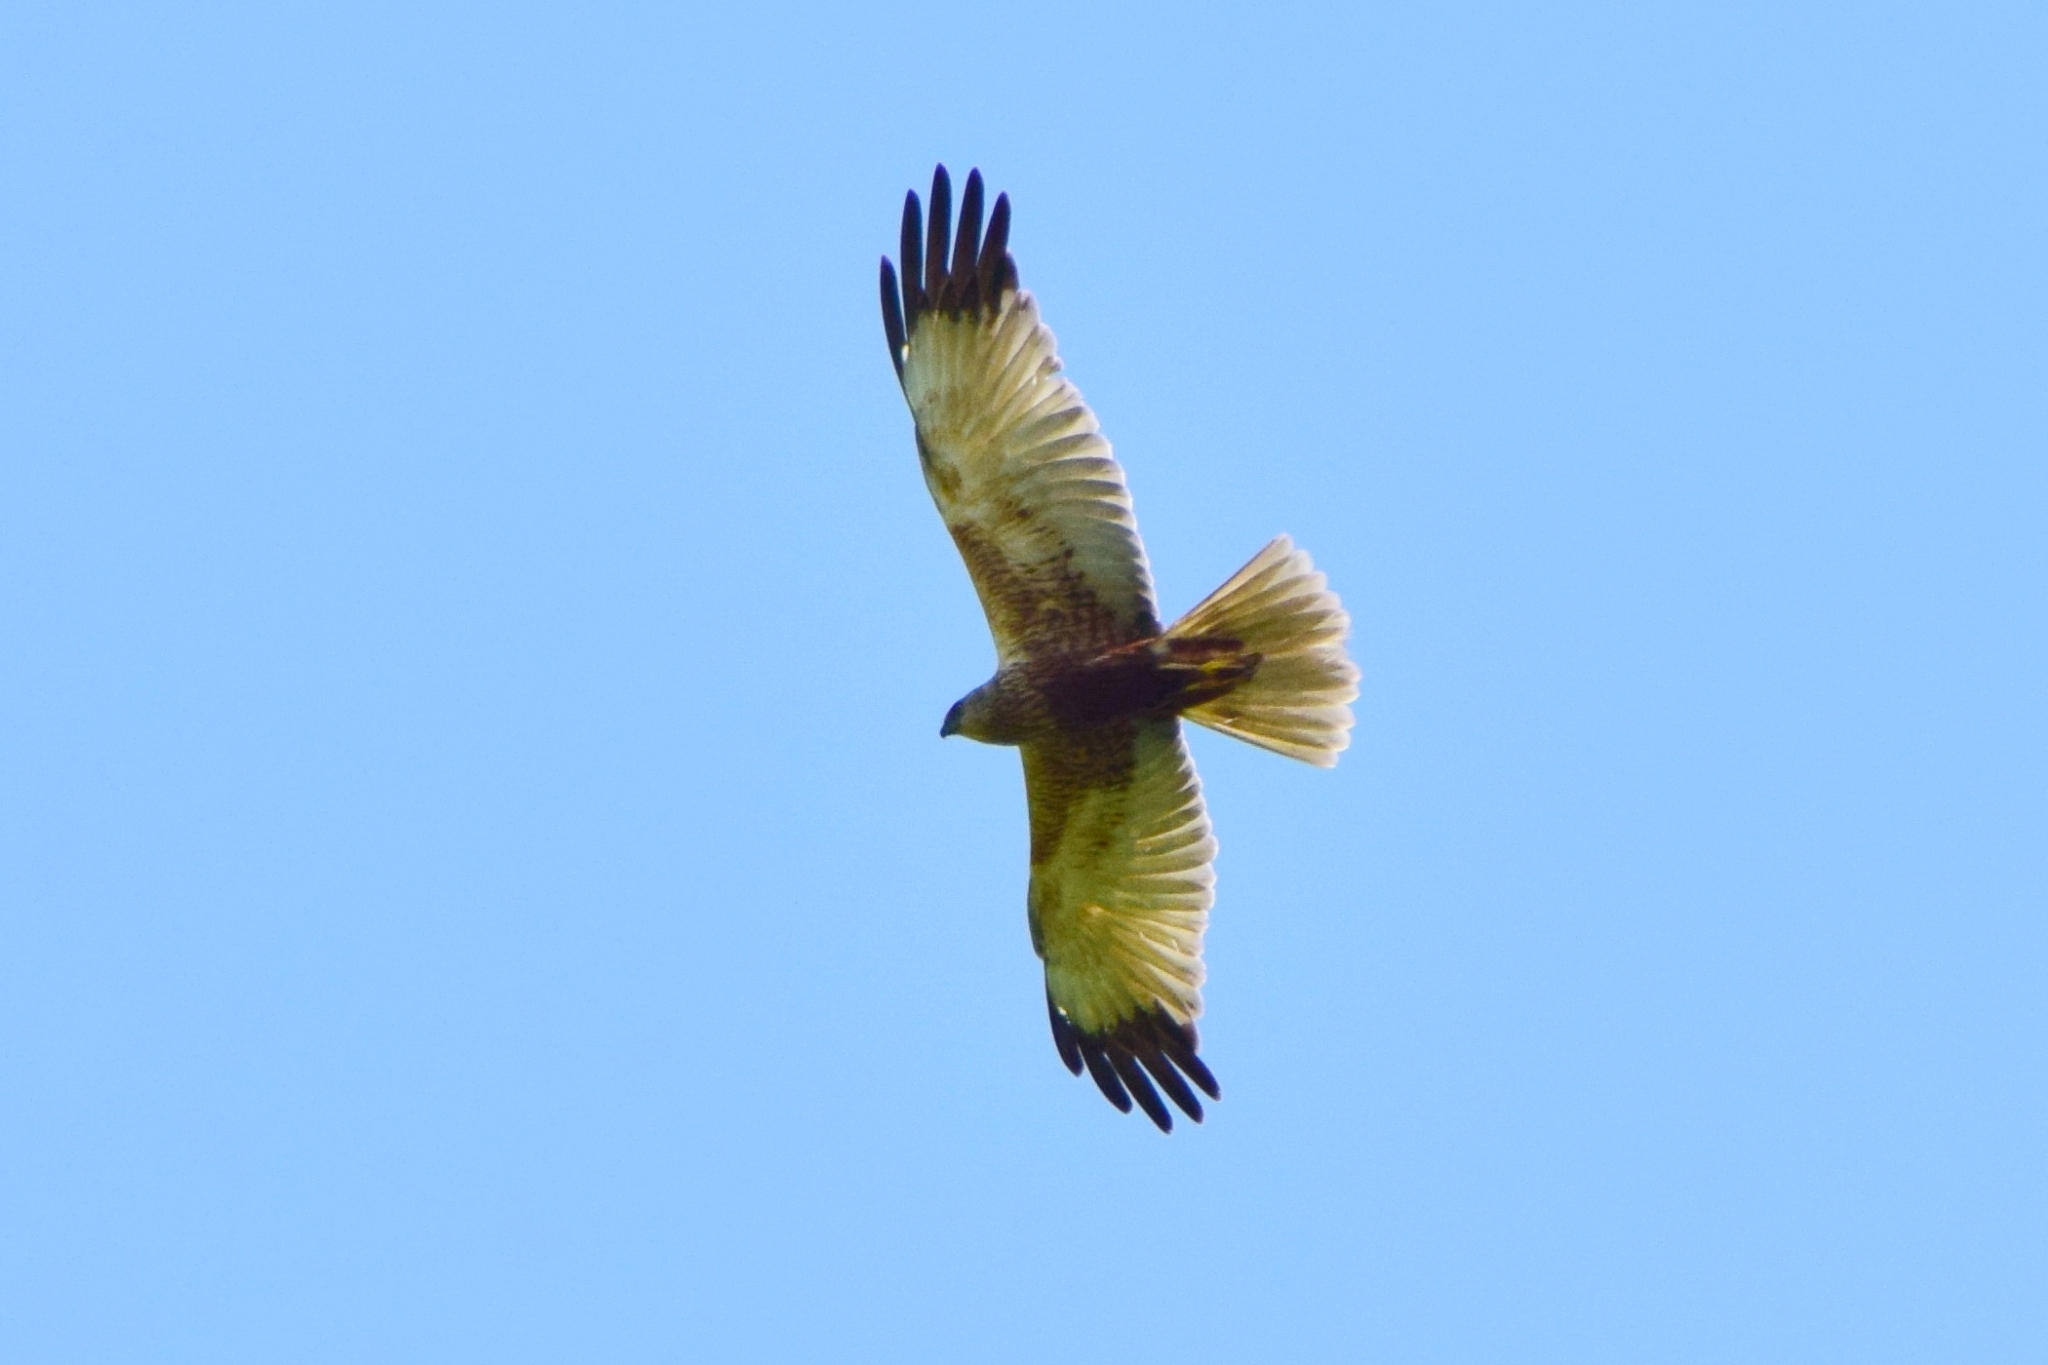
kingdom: Animalia
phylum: Chordata
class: Aves
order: Accipitriformes
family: Accipitridae
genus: Circus
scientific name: Circus aeruginosus
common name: Western marsh harrier
